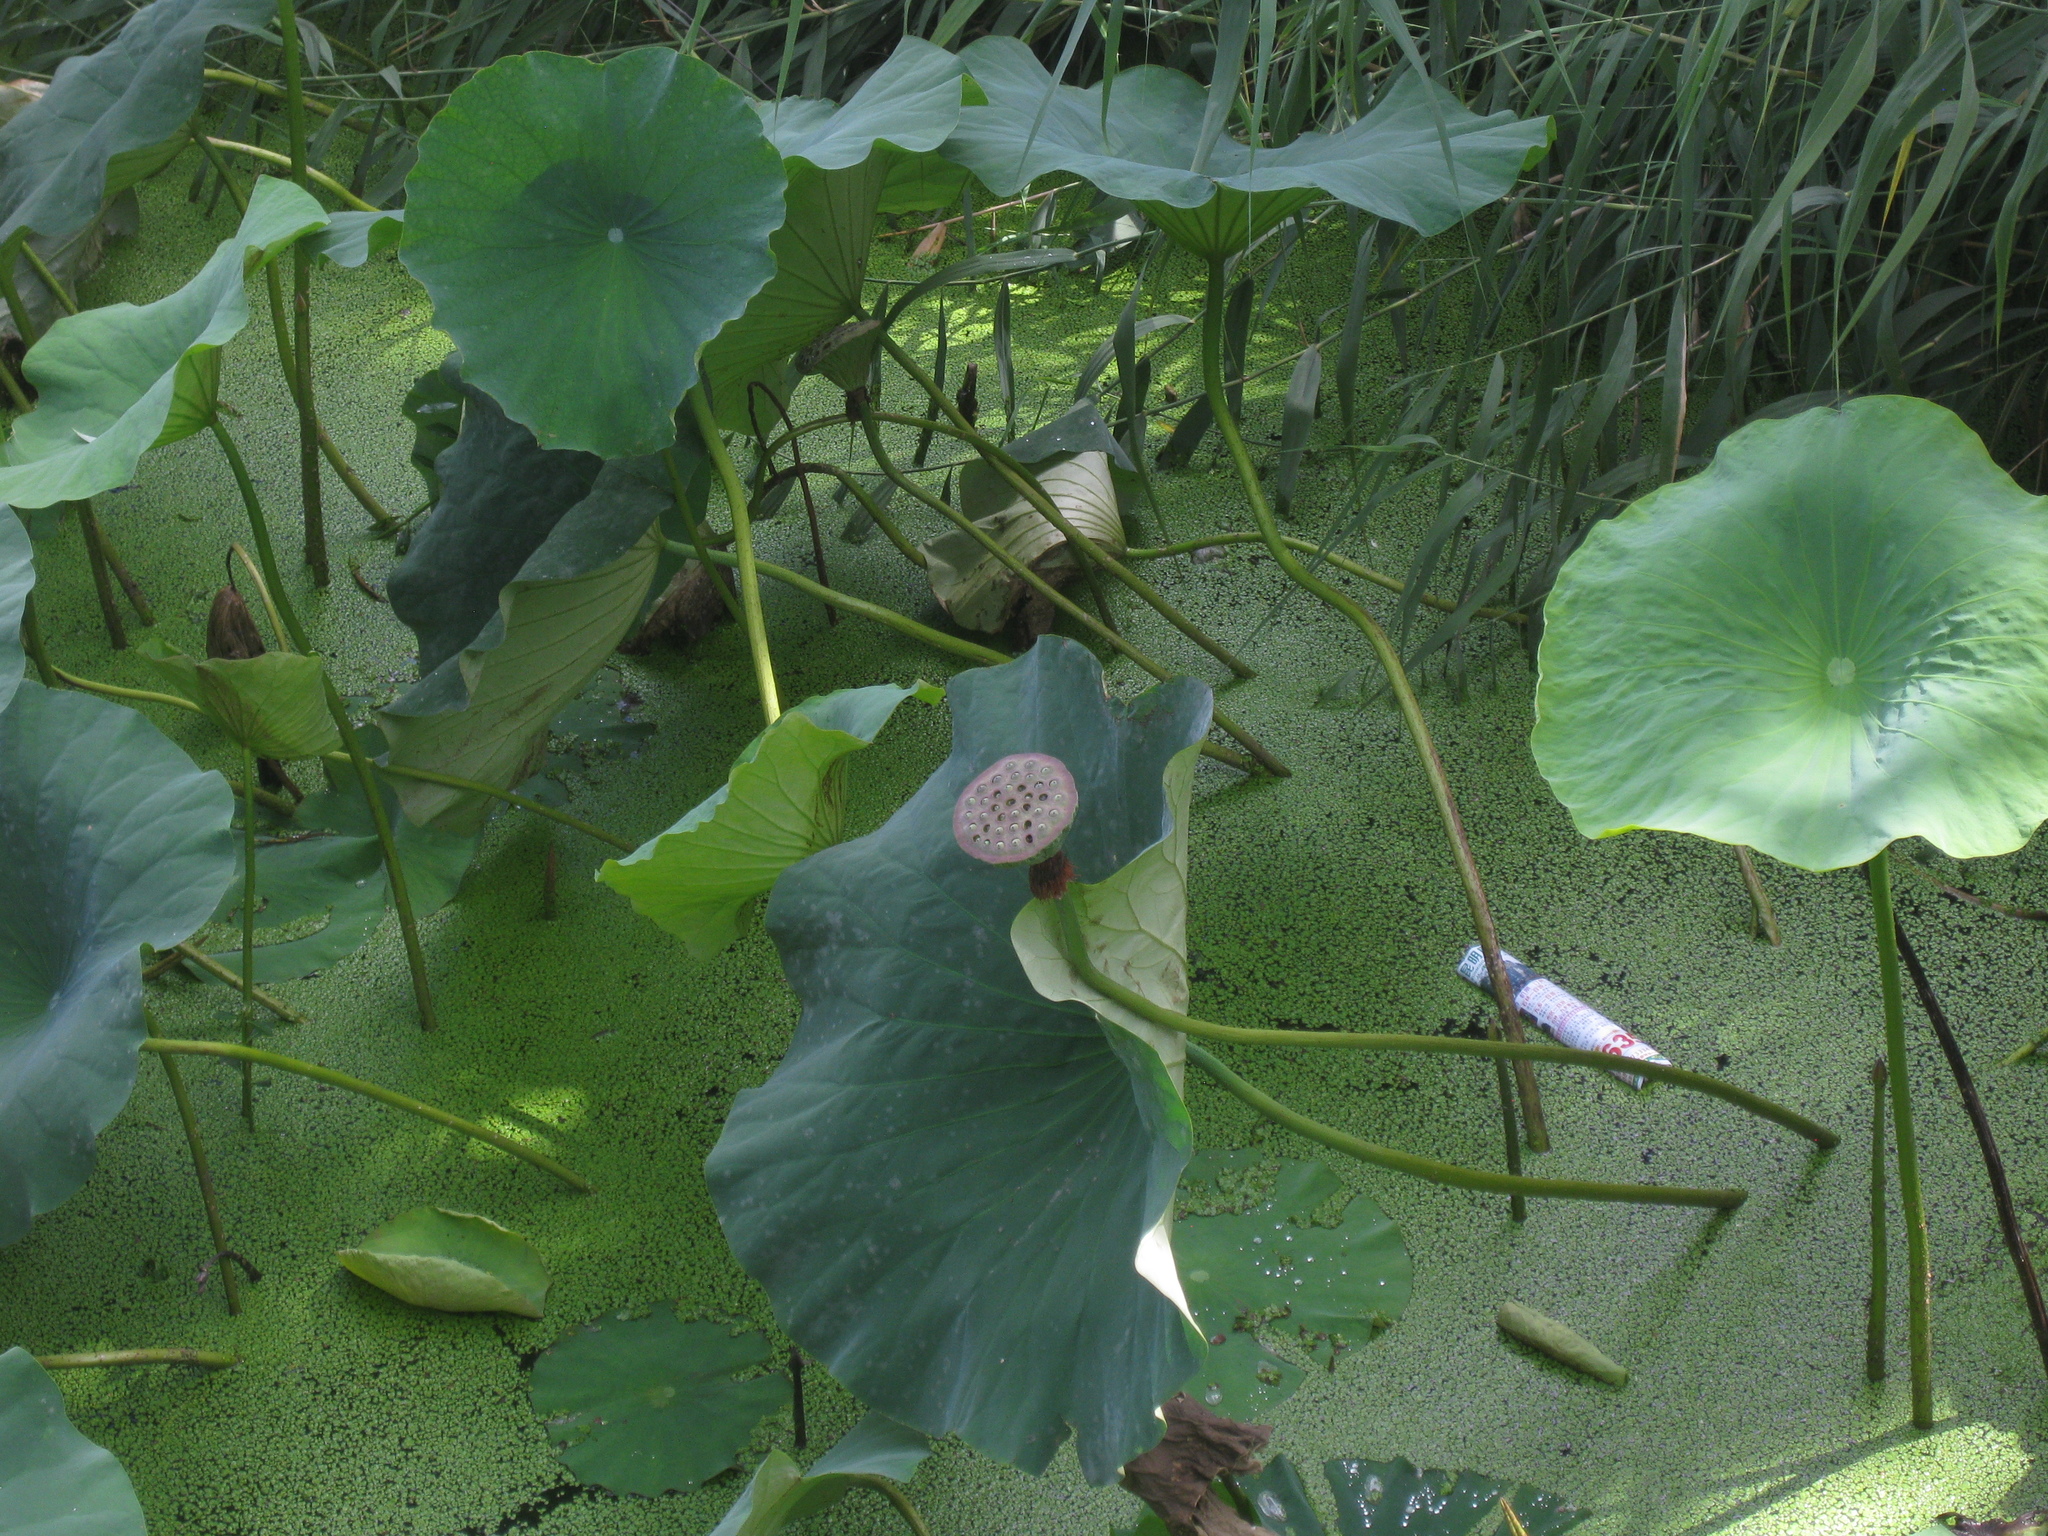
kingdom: Plantae
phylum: Tracheophyta
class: Magnoliopsida
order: Proteales
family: Nelumbonaceae
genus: Nelumbo
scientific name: Nelumbo nucifera
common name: Sacred lotus
